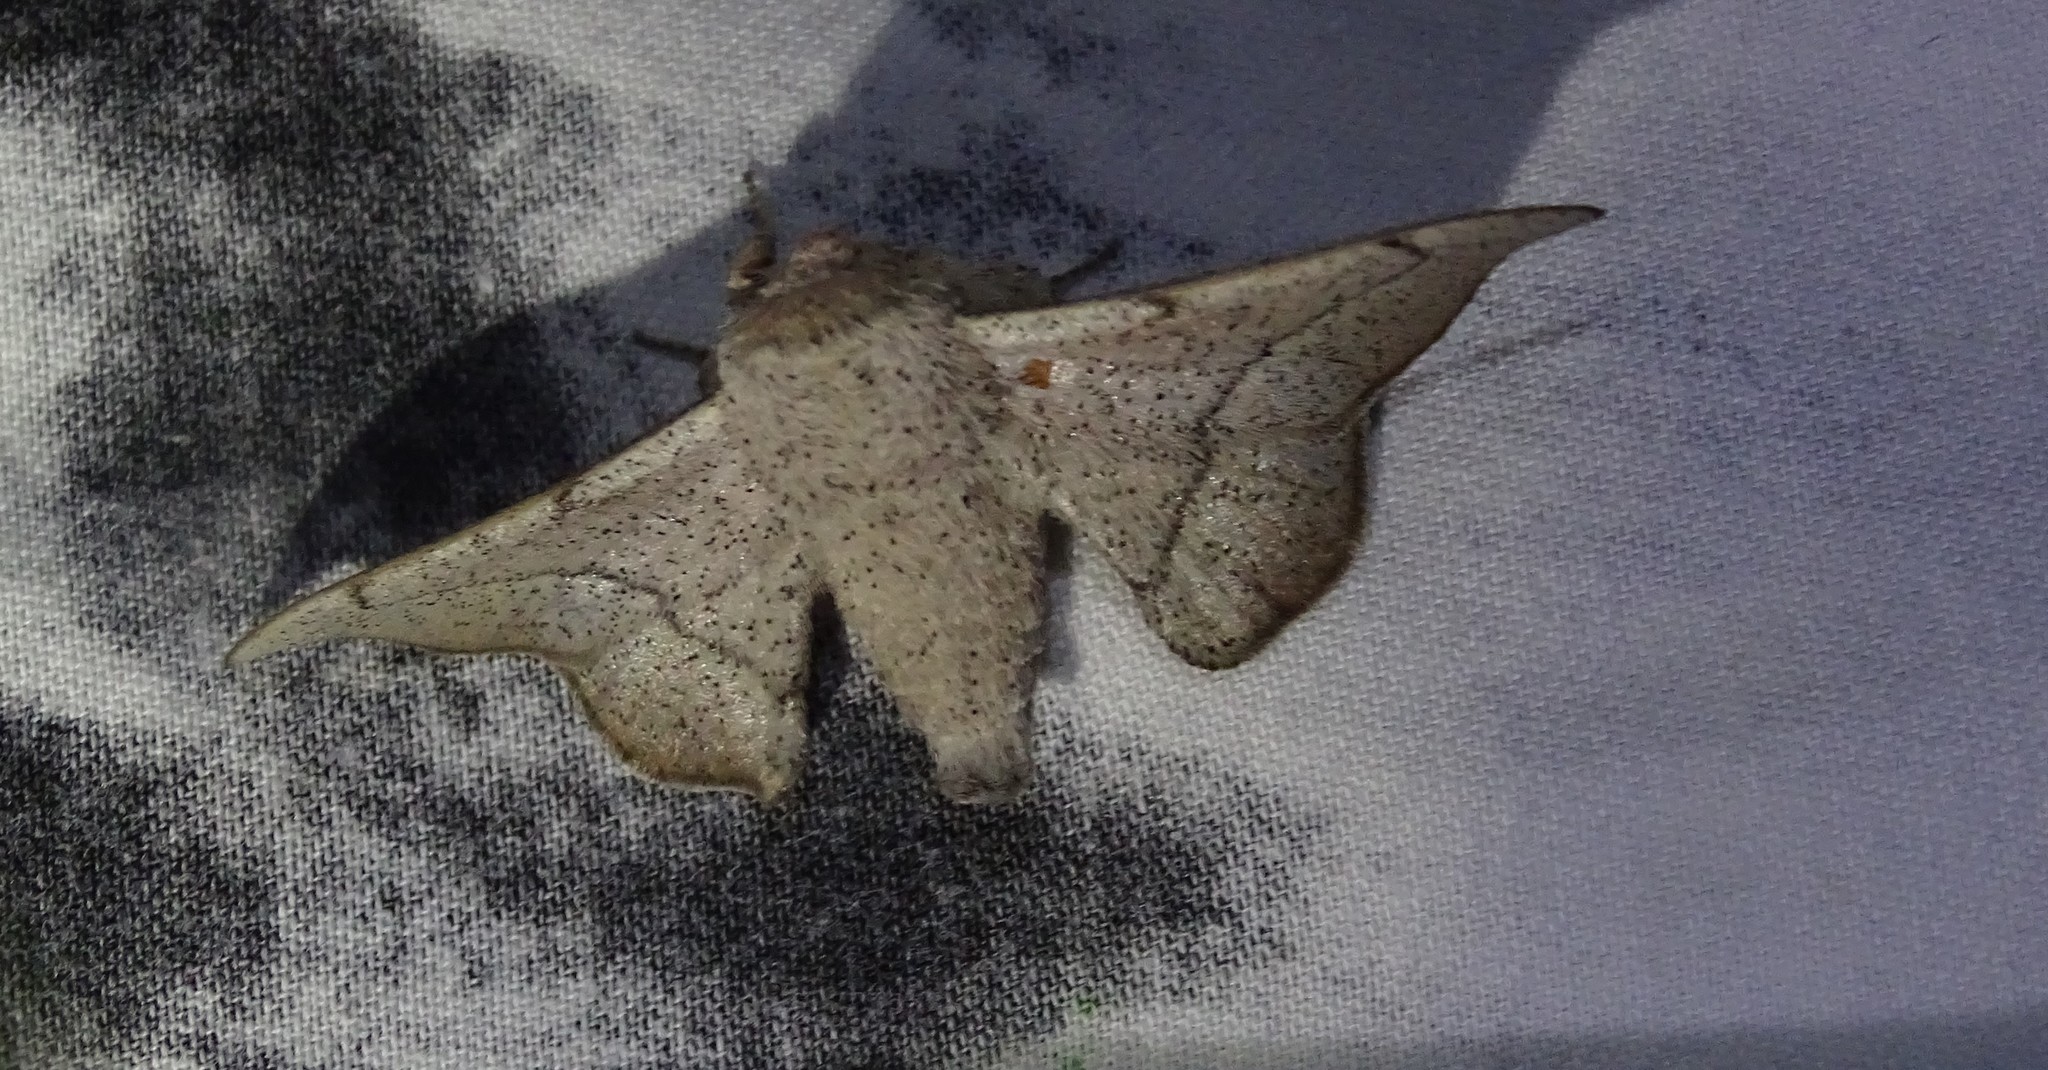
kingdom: Animalia
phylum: Arthropoda
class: Insecta
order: Lepidoptera
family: Mimallonidae
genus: Cicinnus
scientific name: Cicinnus melsheimeri
